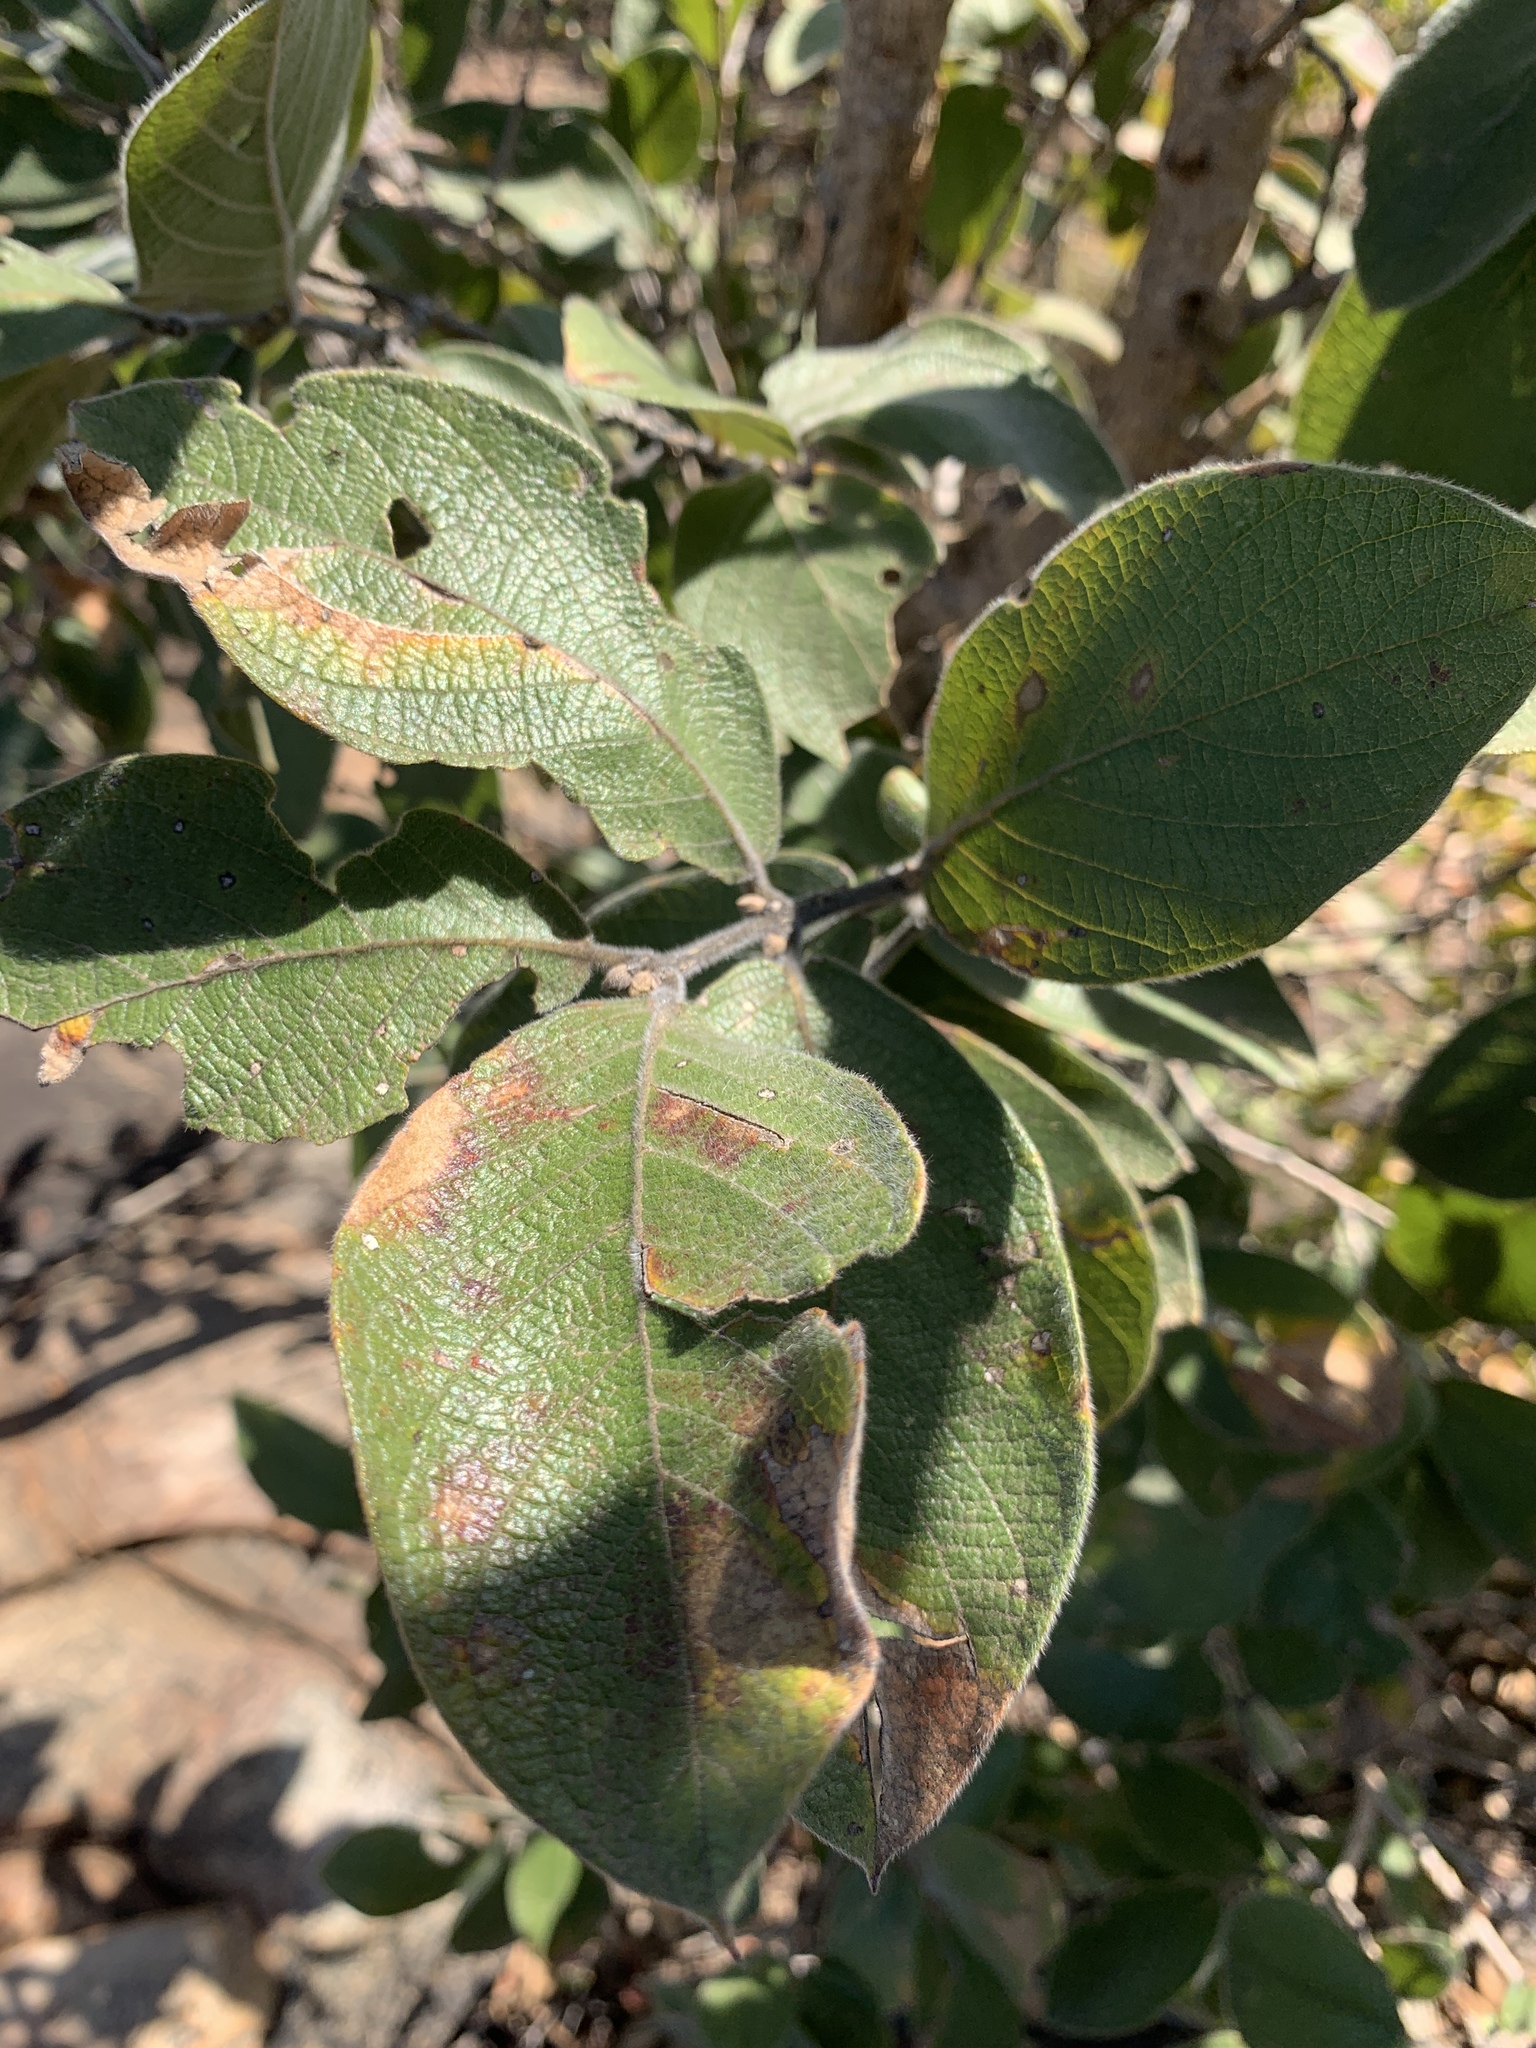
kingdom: Plantae
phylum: Tracheophyta
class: Magnoliopsida
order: Myrtales
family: Combretaceae
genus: Combretum
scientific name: Combretum molle
